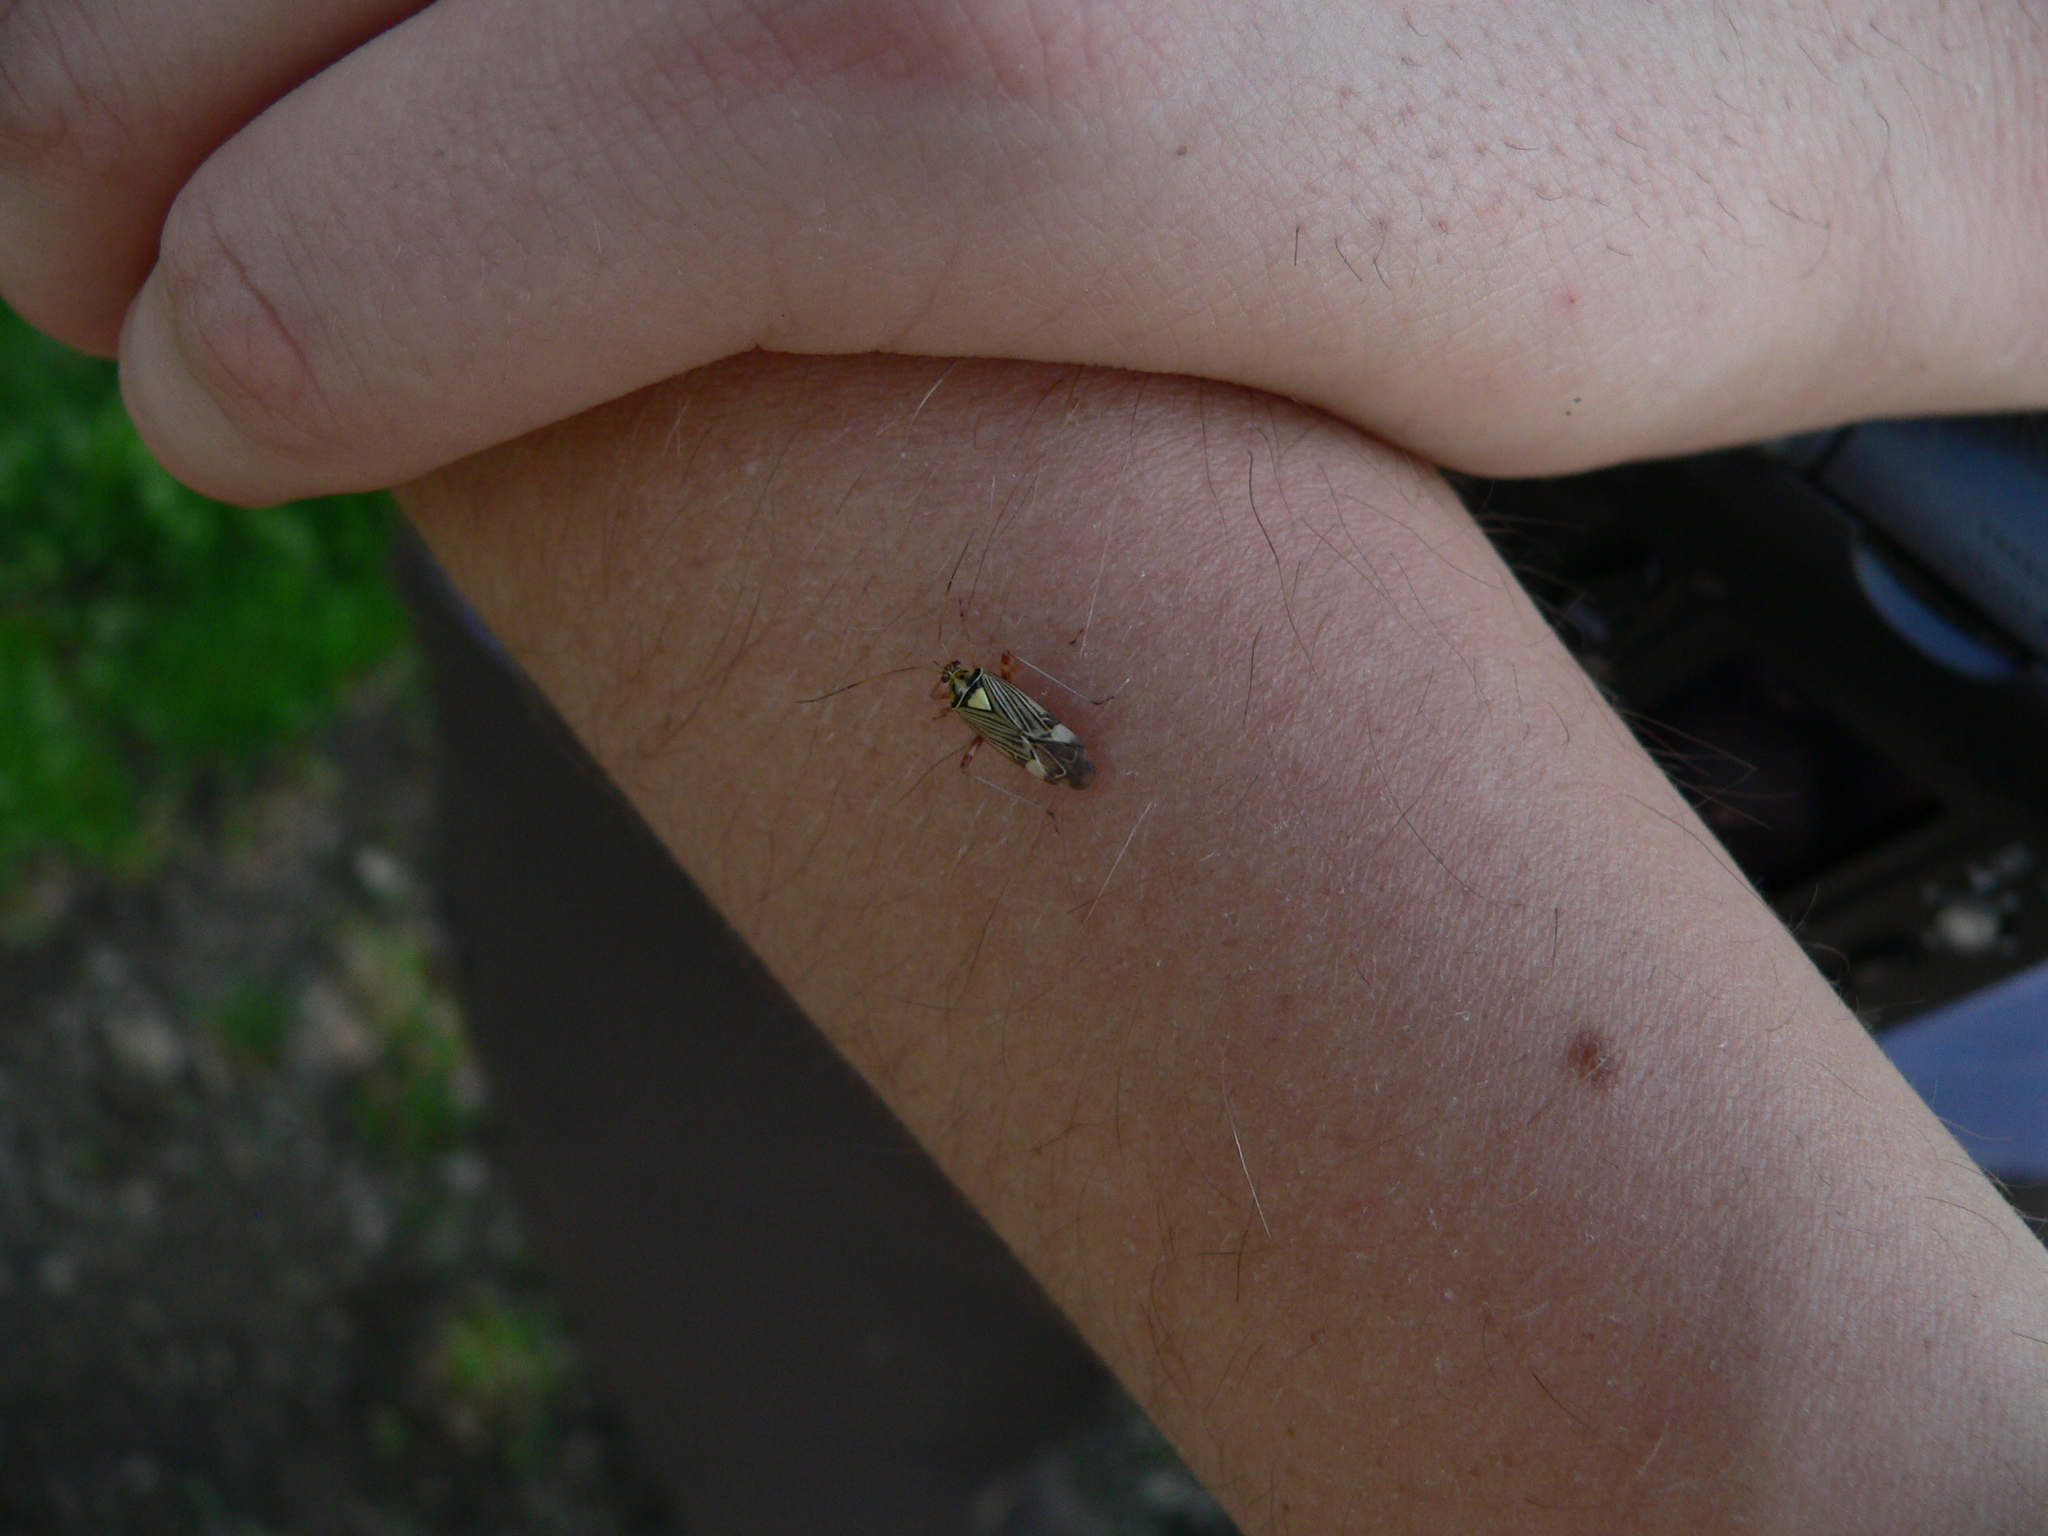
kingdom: Animalia
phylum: Arthropoda
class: Insecta
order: Hemiptera
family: Miridae
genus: Rhabdomiris
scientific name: Rhabdomiris striatellus
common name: Plant bug
